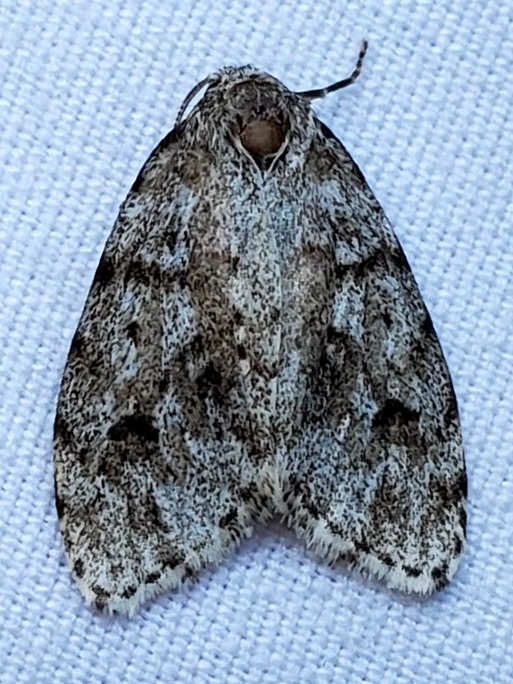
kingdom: Animalia
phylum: Arthropoda
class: Insecta
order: Lepidoptera
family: Erebidae
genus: Clemensia
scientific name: Clemensia albata
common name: Little white lichen moth
